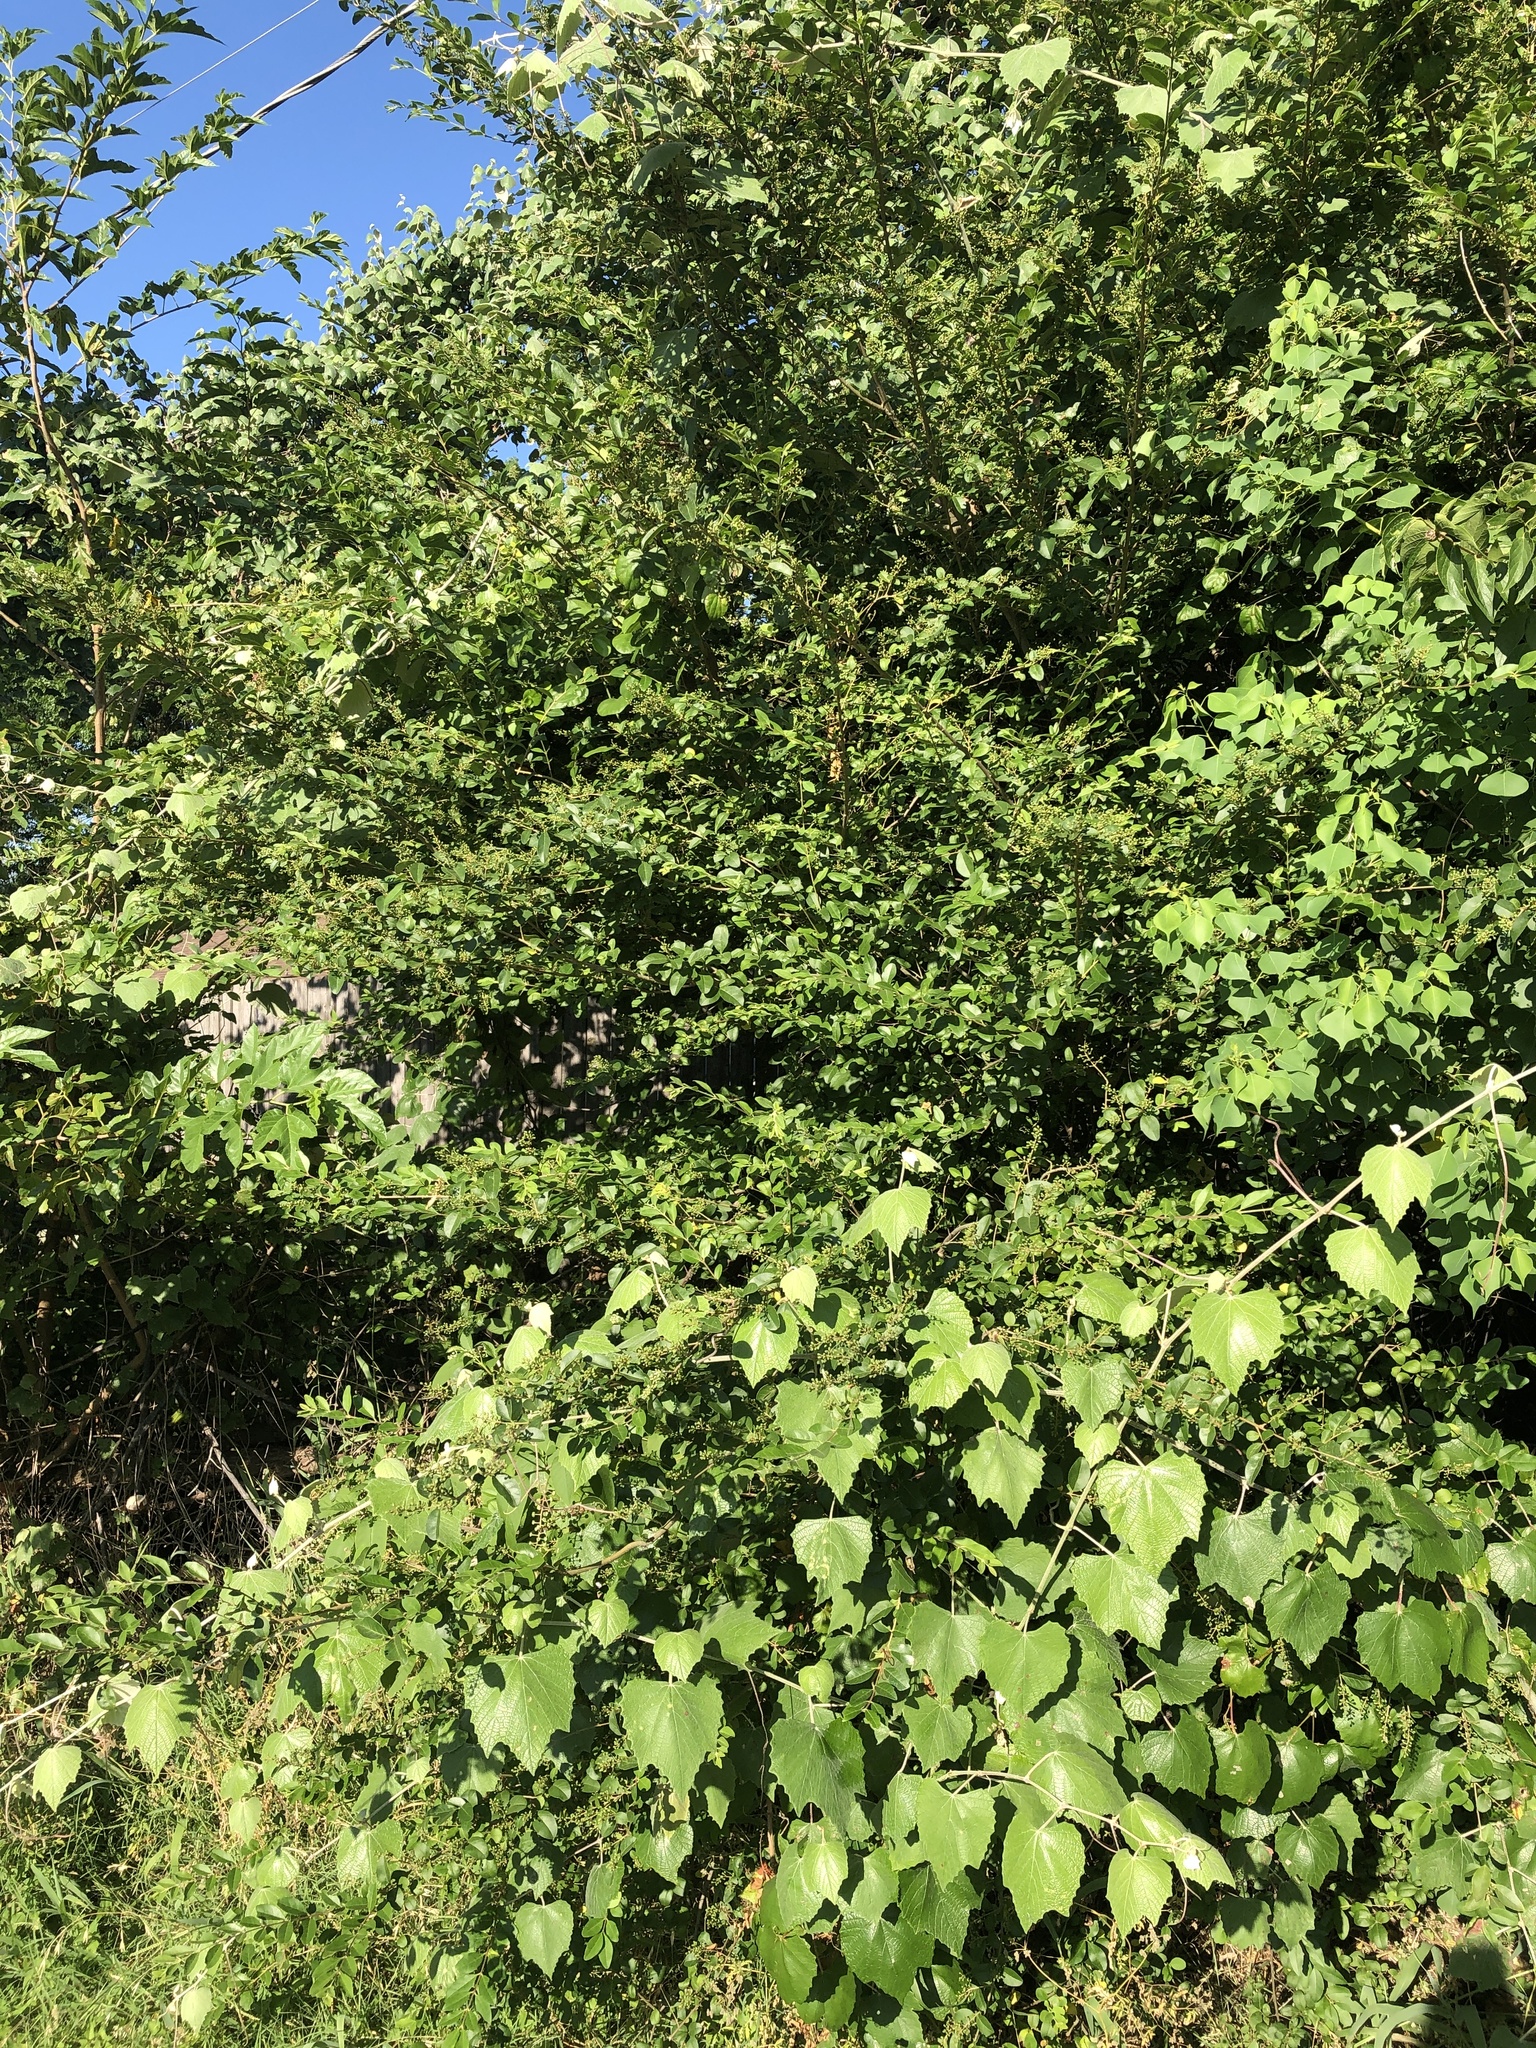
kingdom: Plantae
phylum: Tracheophyta
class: Magnoliopsida
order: Lamiales
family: Oleaceae
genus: Ligustrum
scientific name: Ligustrum sinense
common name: Chinese privet
